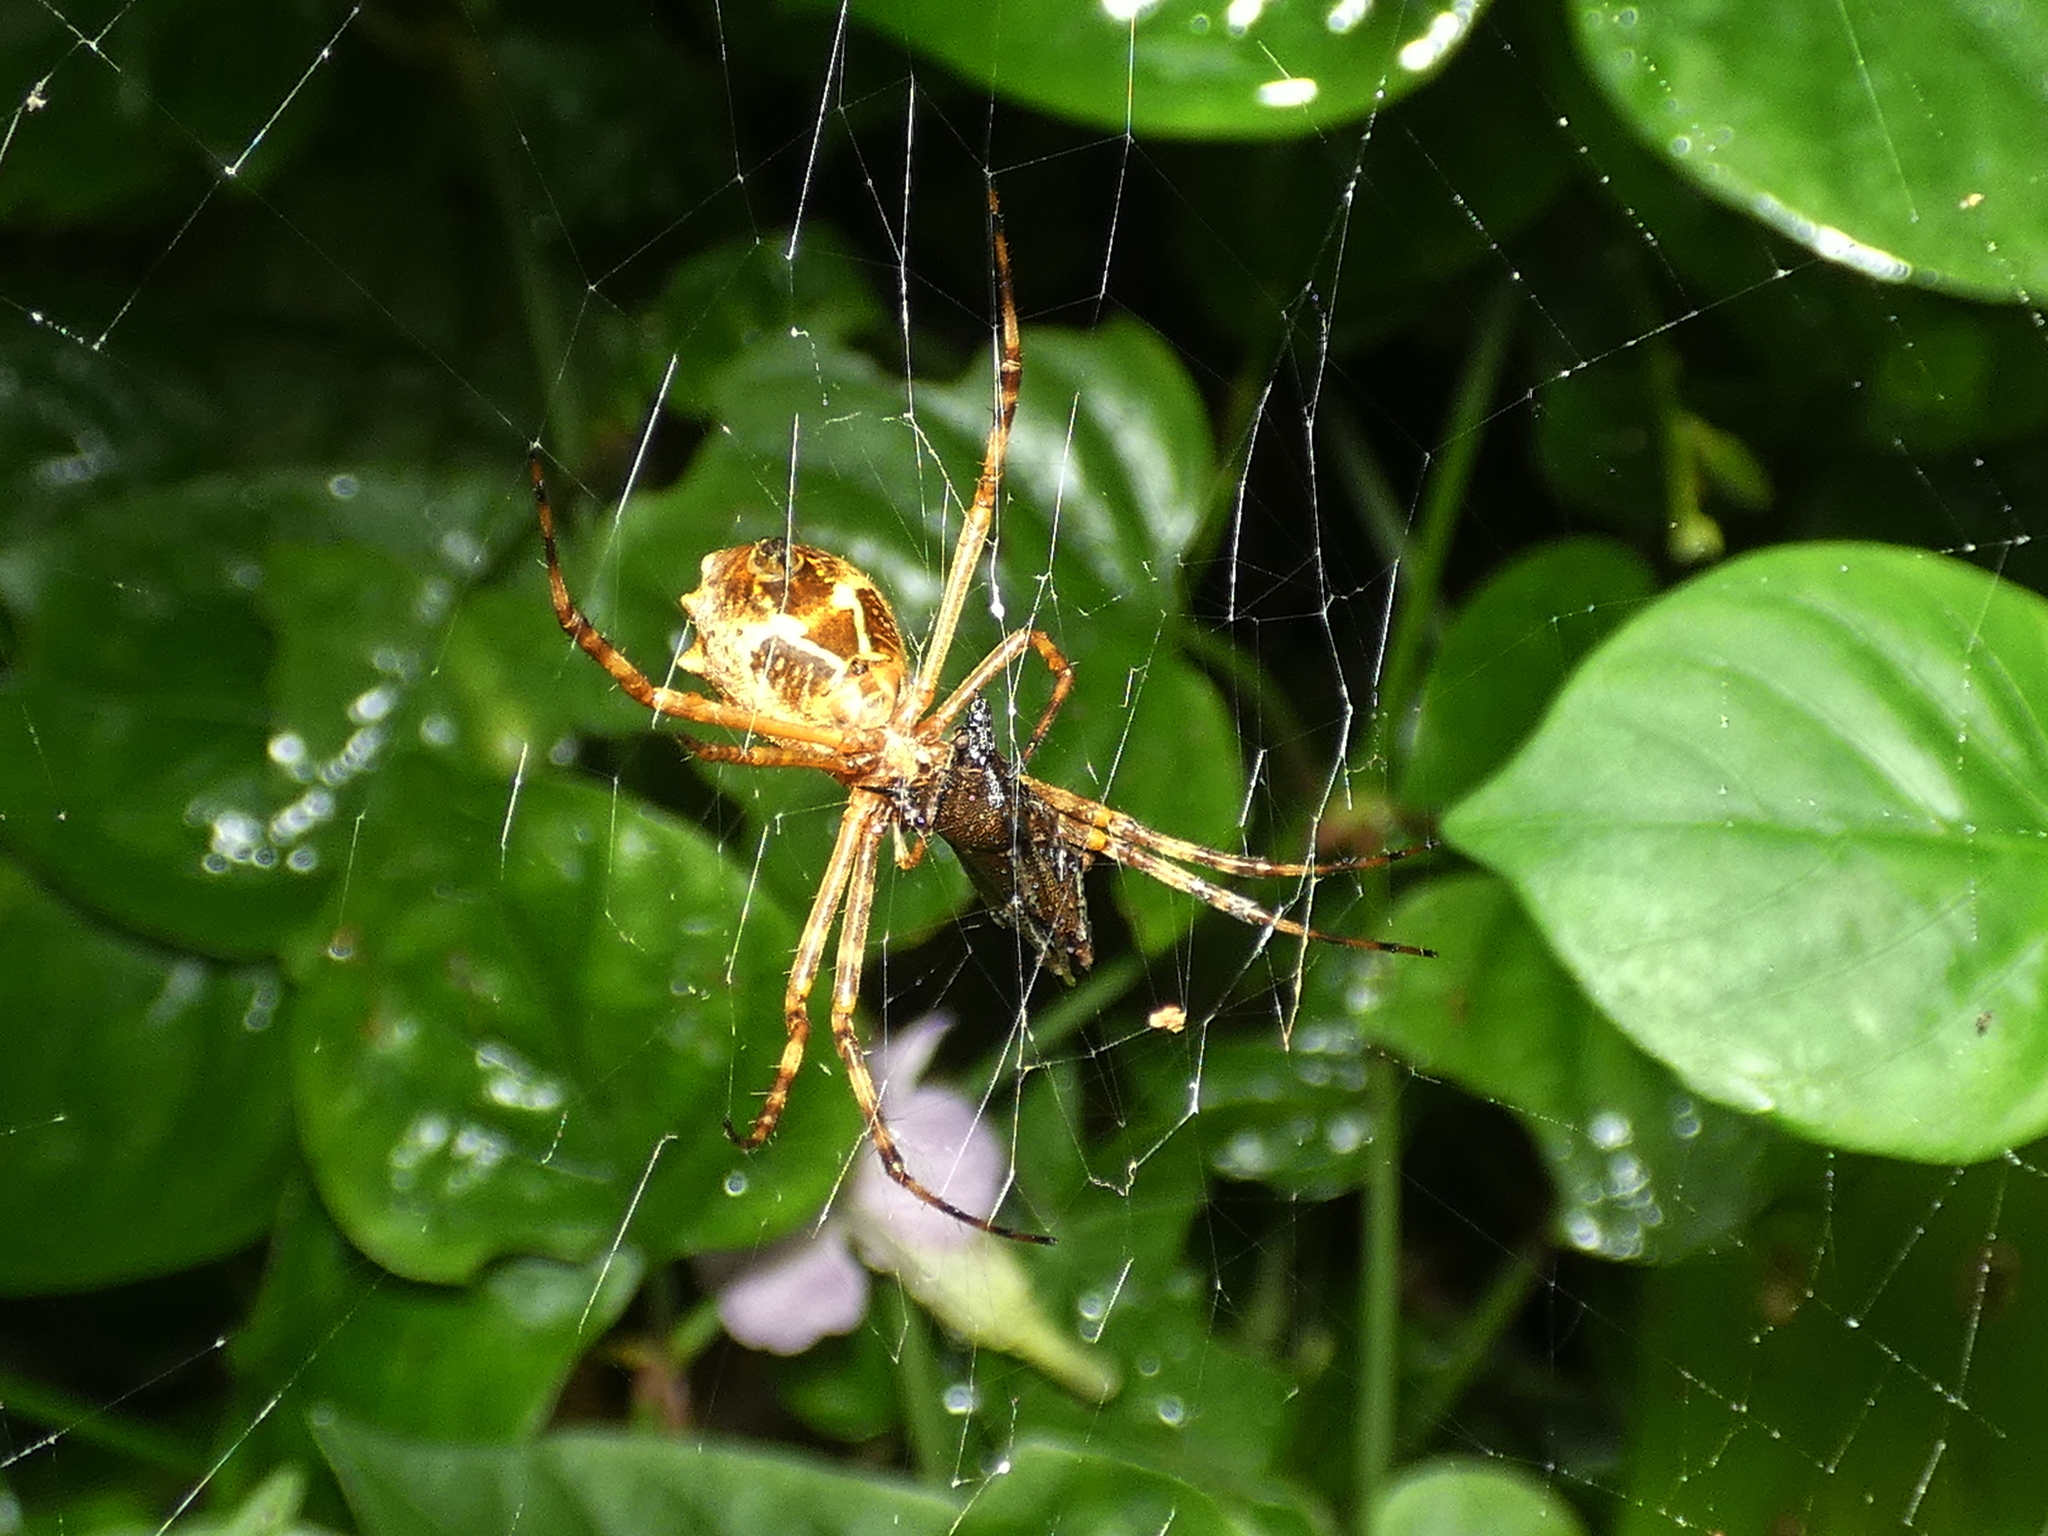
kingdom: Animalia
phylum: Arthropoda
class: Arachnida
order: Araneae
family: Araneidae
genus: Argiope
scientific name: Argiope argentata
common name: Orb weavers
